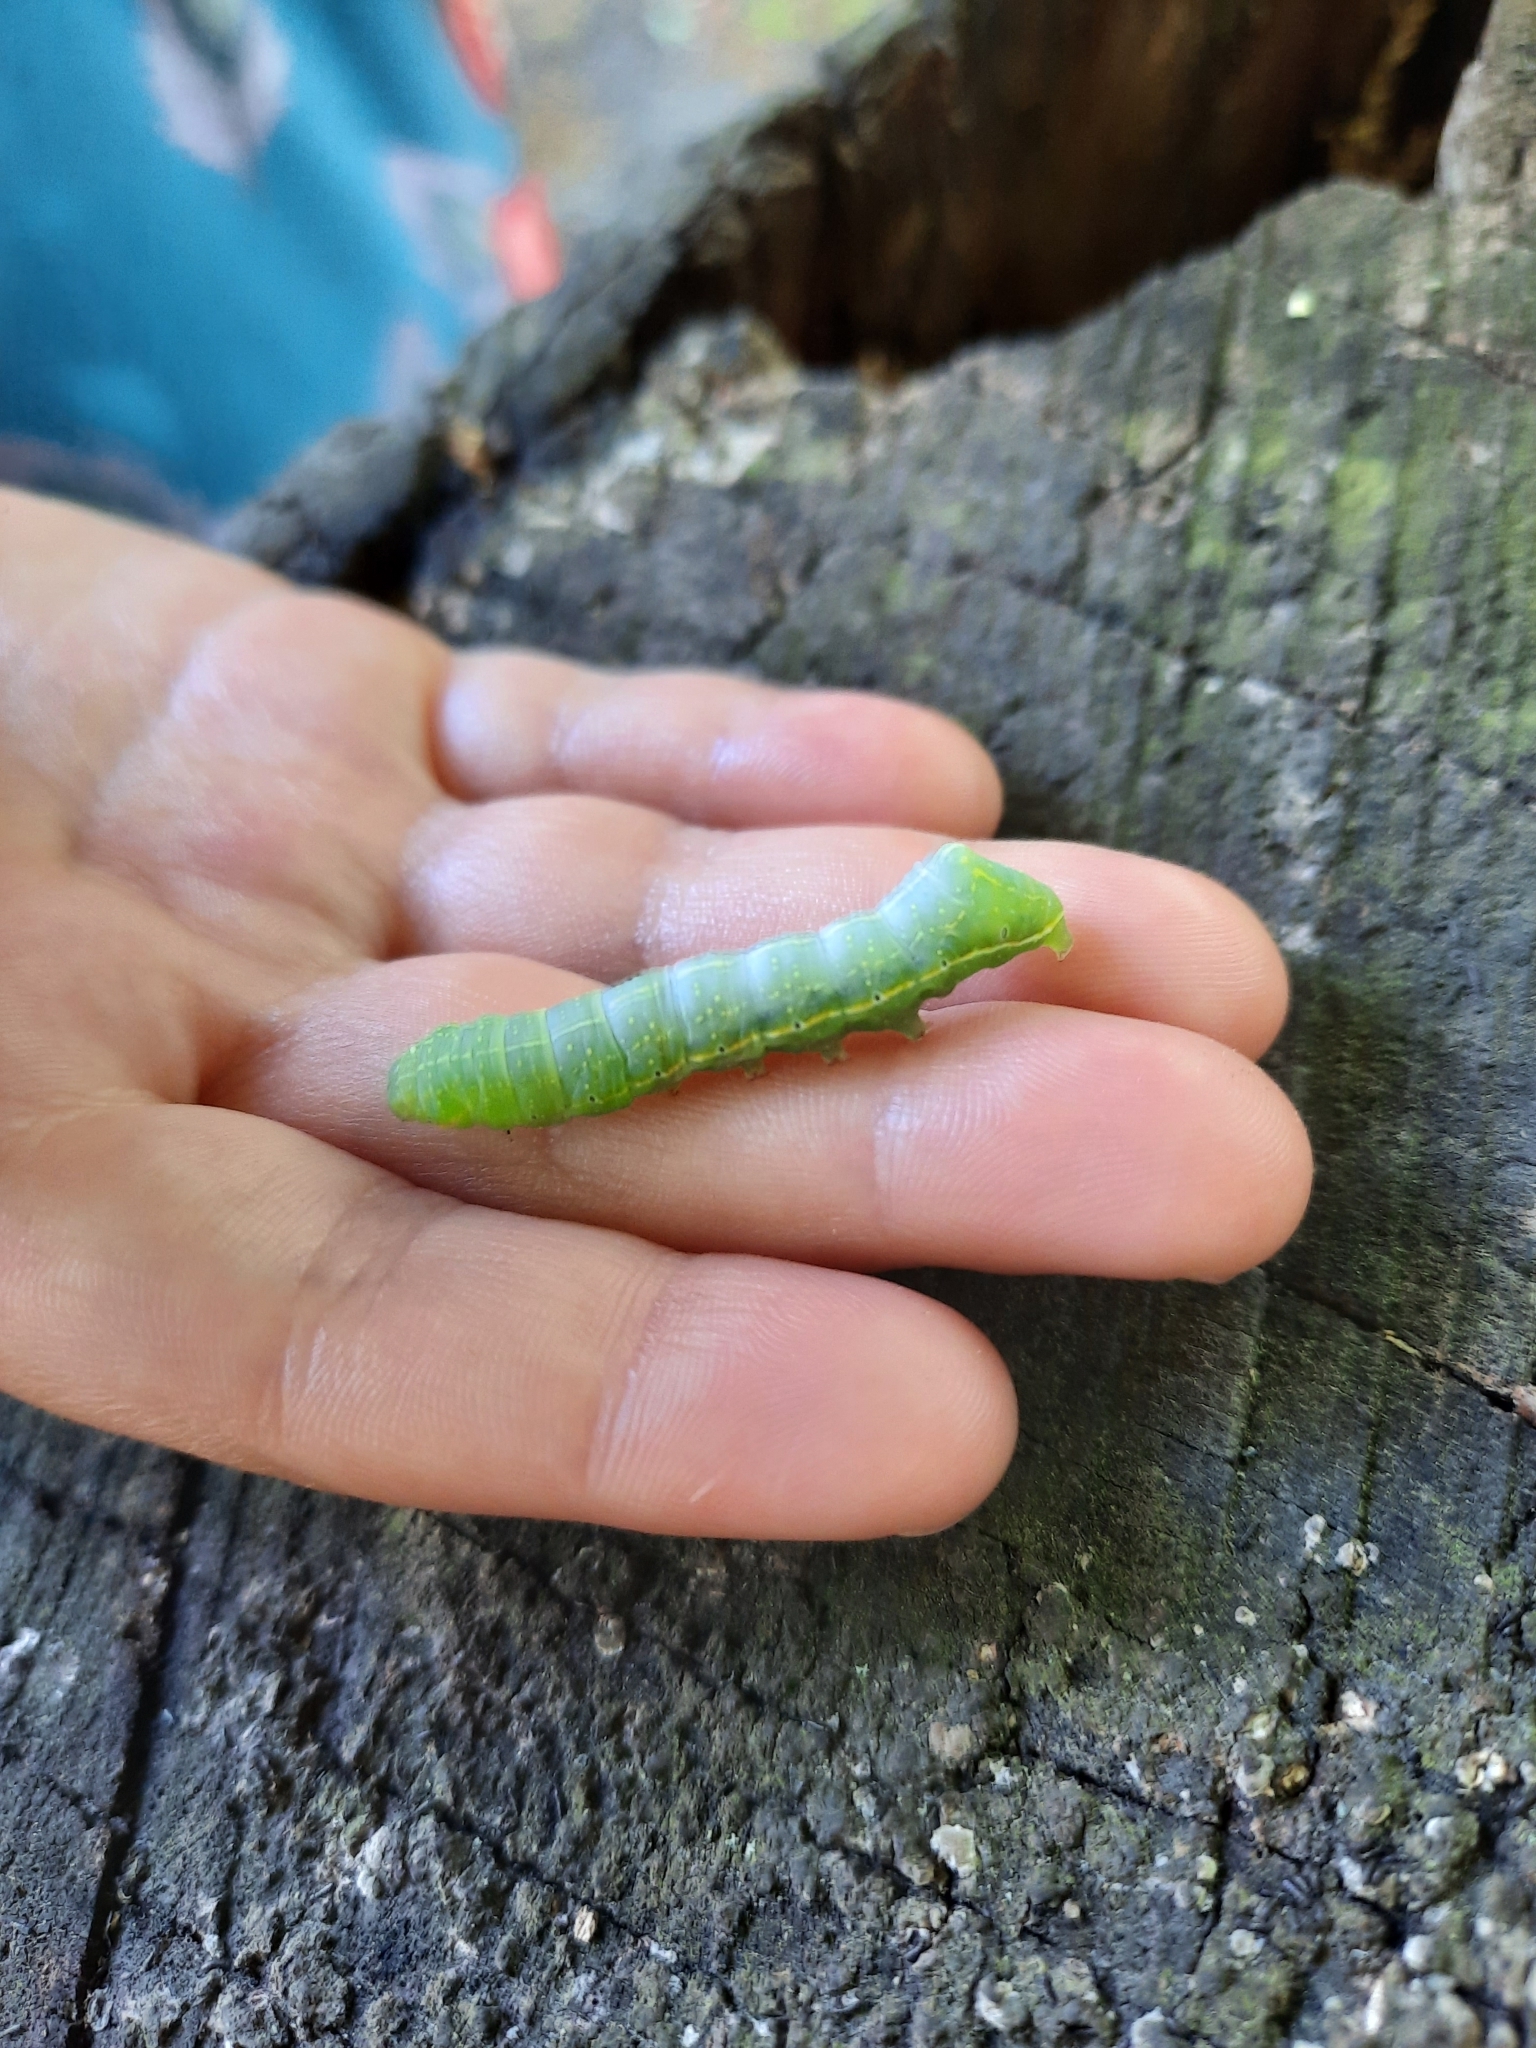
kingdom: Animalia
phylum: Arthropoda
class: Insecta
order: Lepidoptera
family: Noctuidae
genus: Amphipyra
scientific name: Amphipyra pyramidoides
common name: American copper underwing
